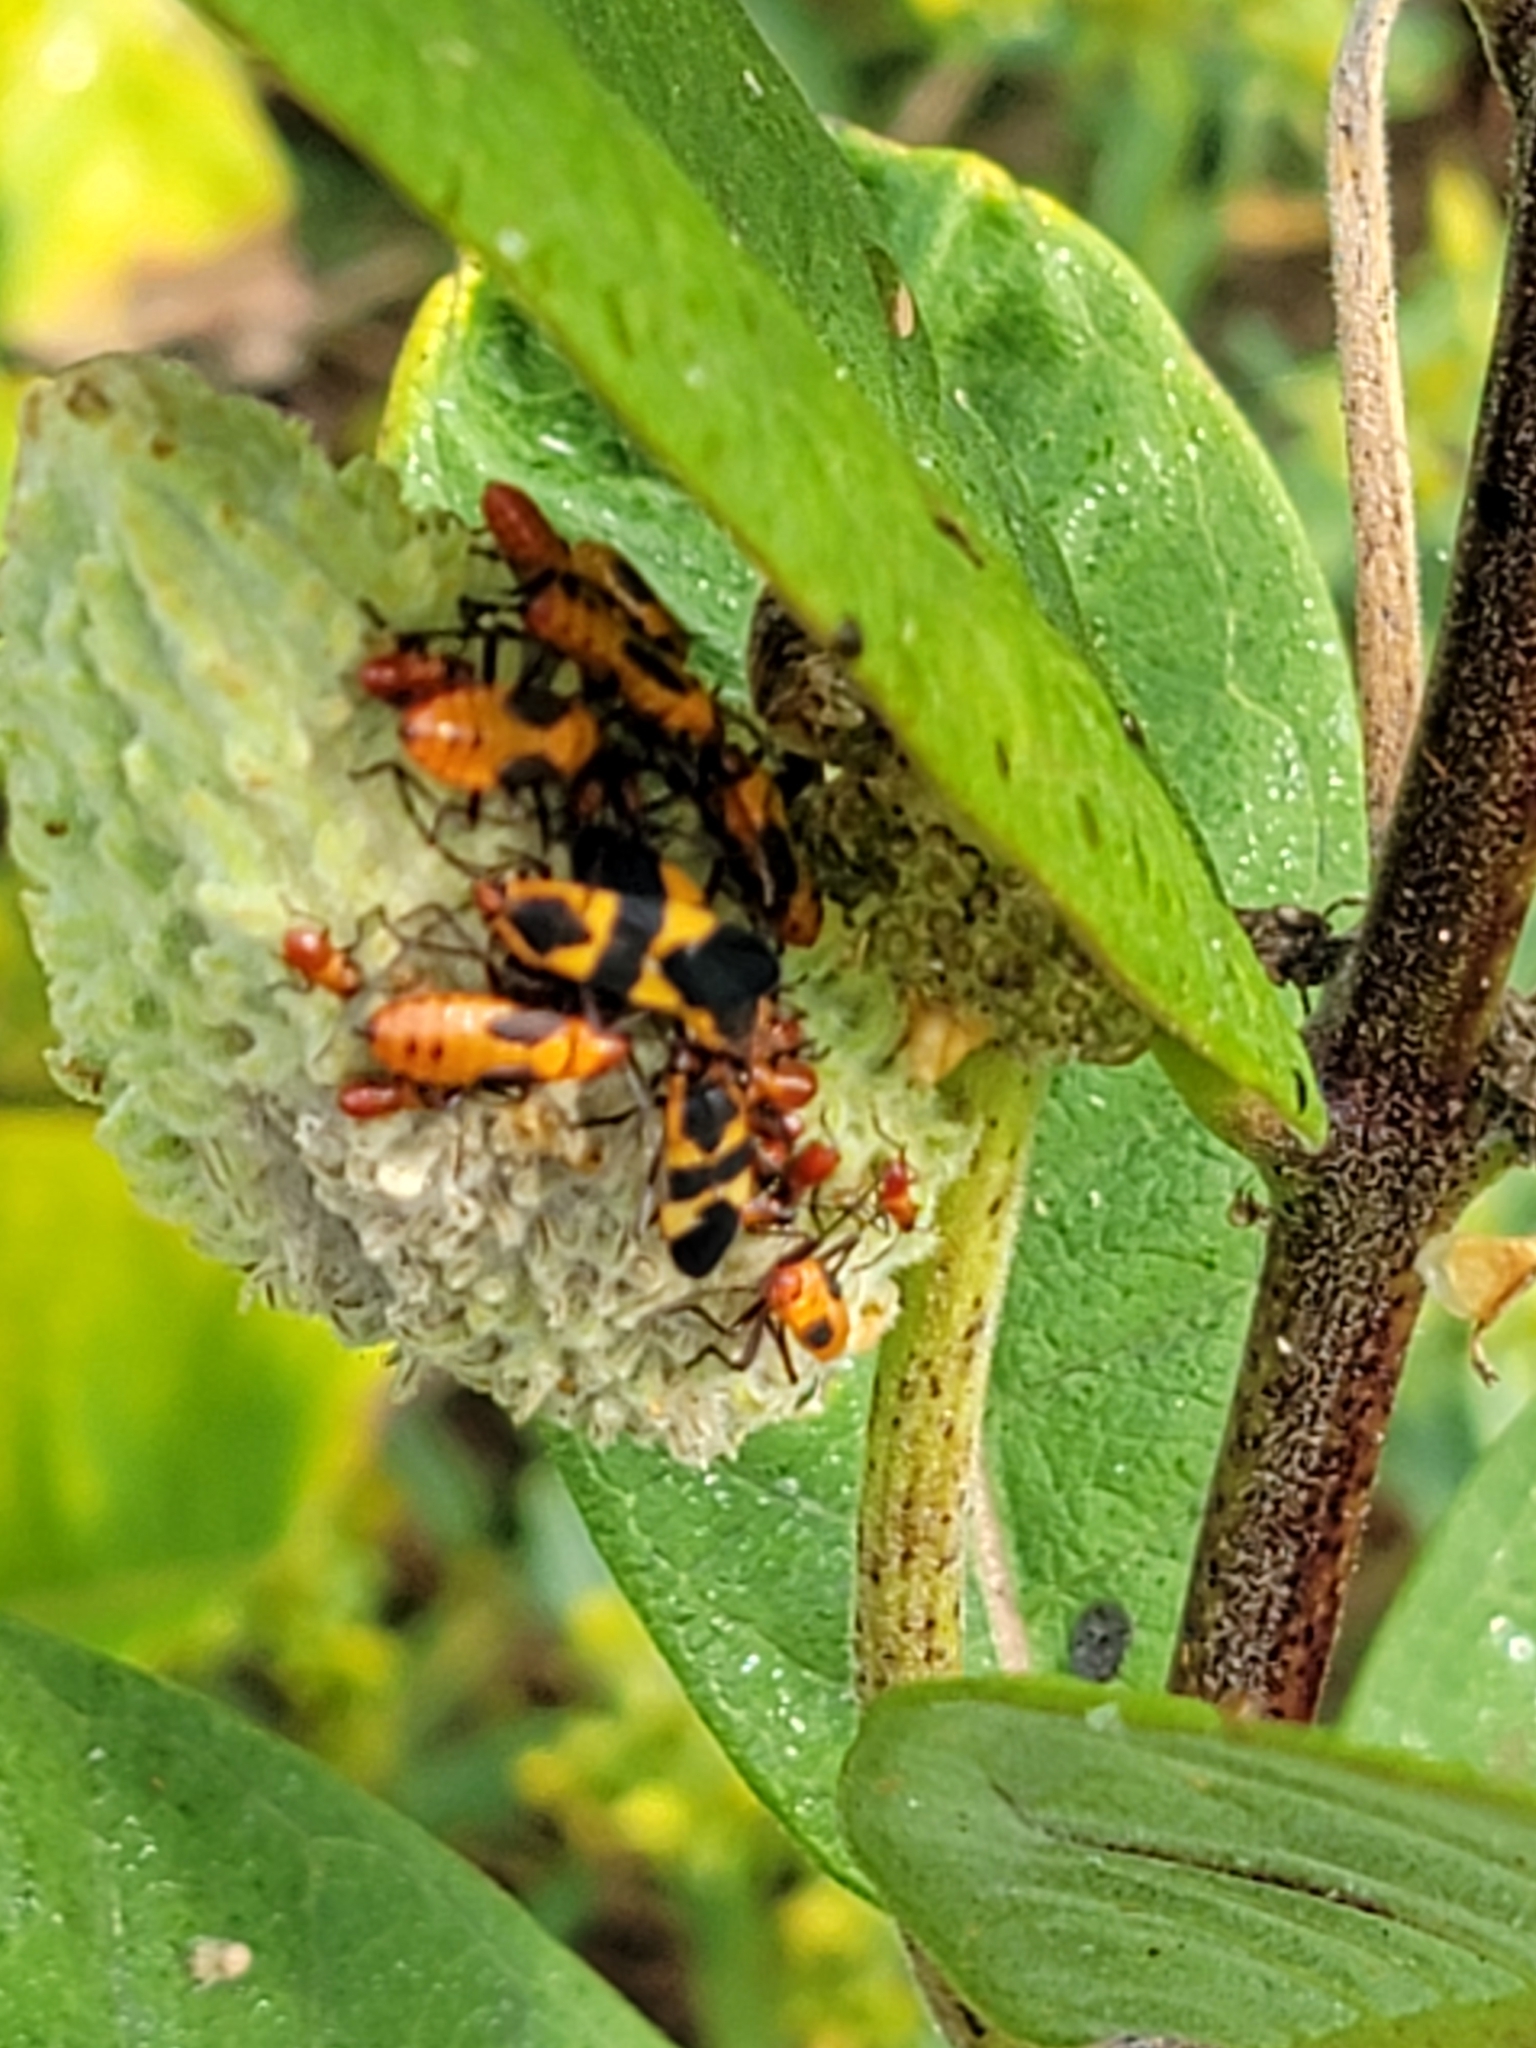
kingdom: Animalia
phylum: Arthropoda
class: Insecta
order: Hemiptera
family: Lygaeidae
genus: Oncopeltus
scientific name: Oncopeltus fasciatus
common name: Large milkweed bug
